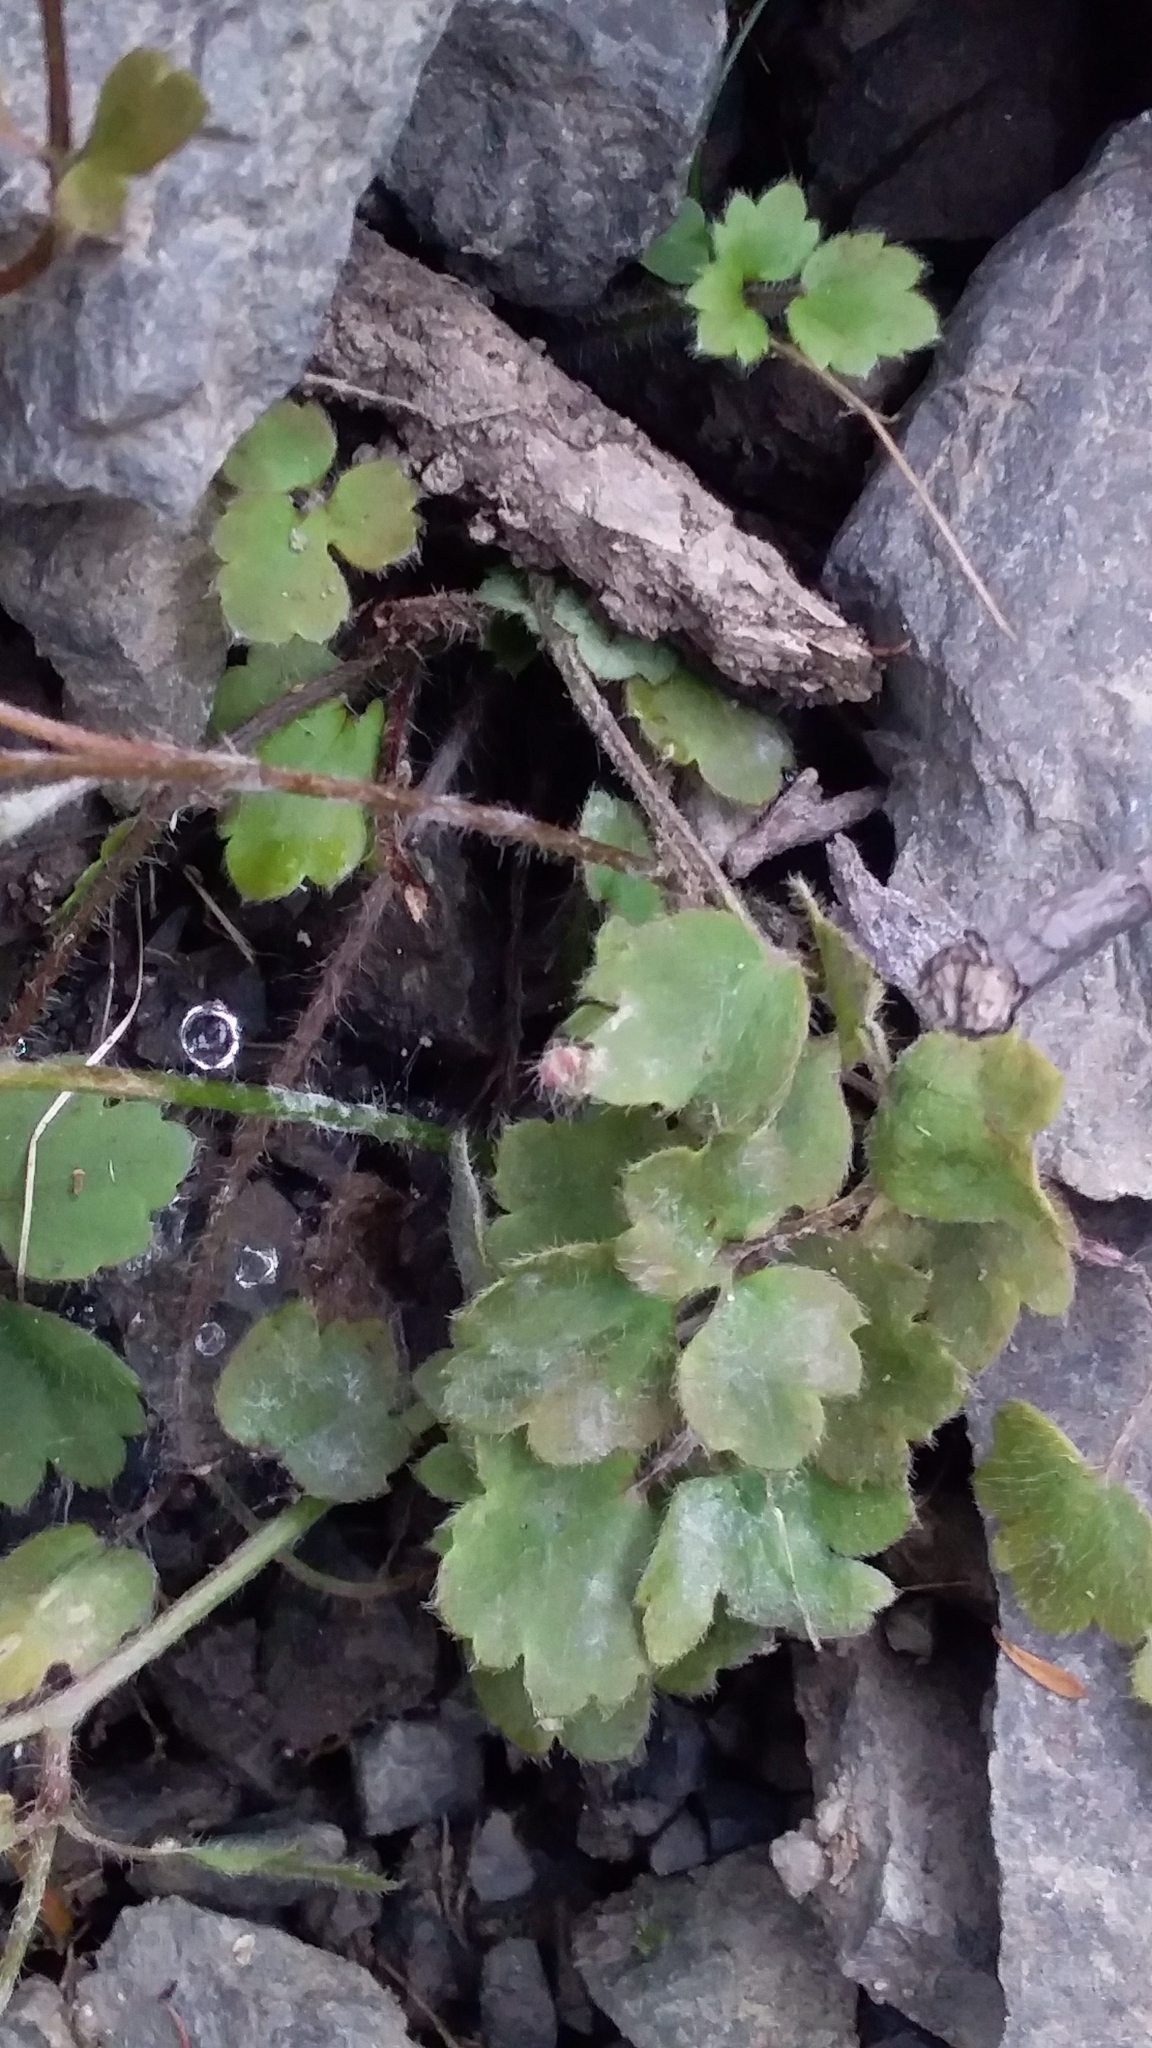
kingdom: Plantae
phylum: Tracheophyta
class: Magnoliopsida
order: Ranunculales
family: Ranunculaceae
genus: Ranunculus
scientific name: Ranunculus reflexus
